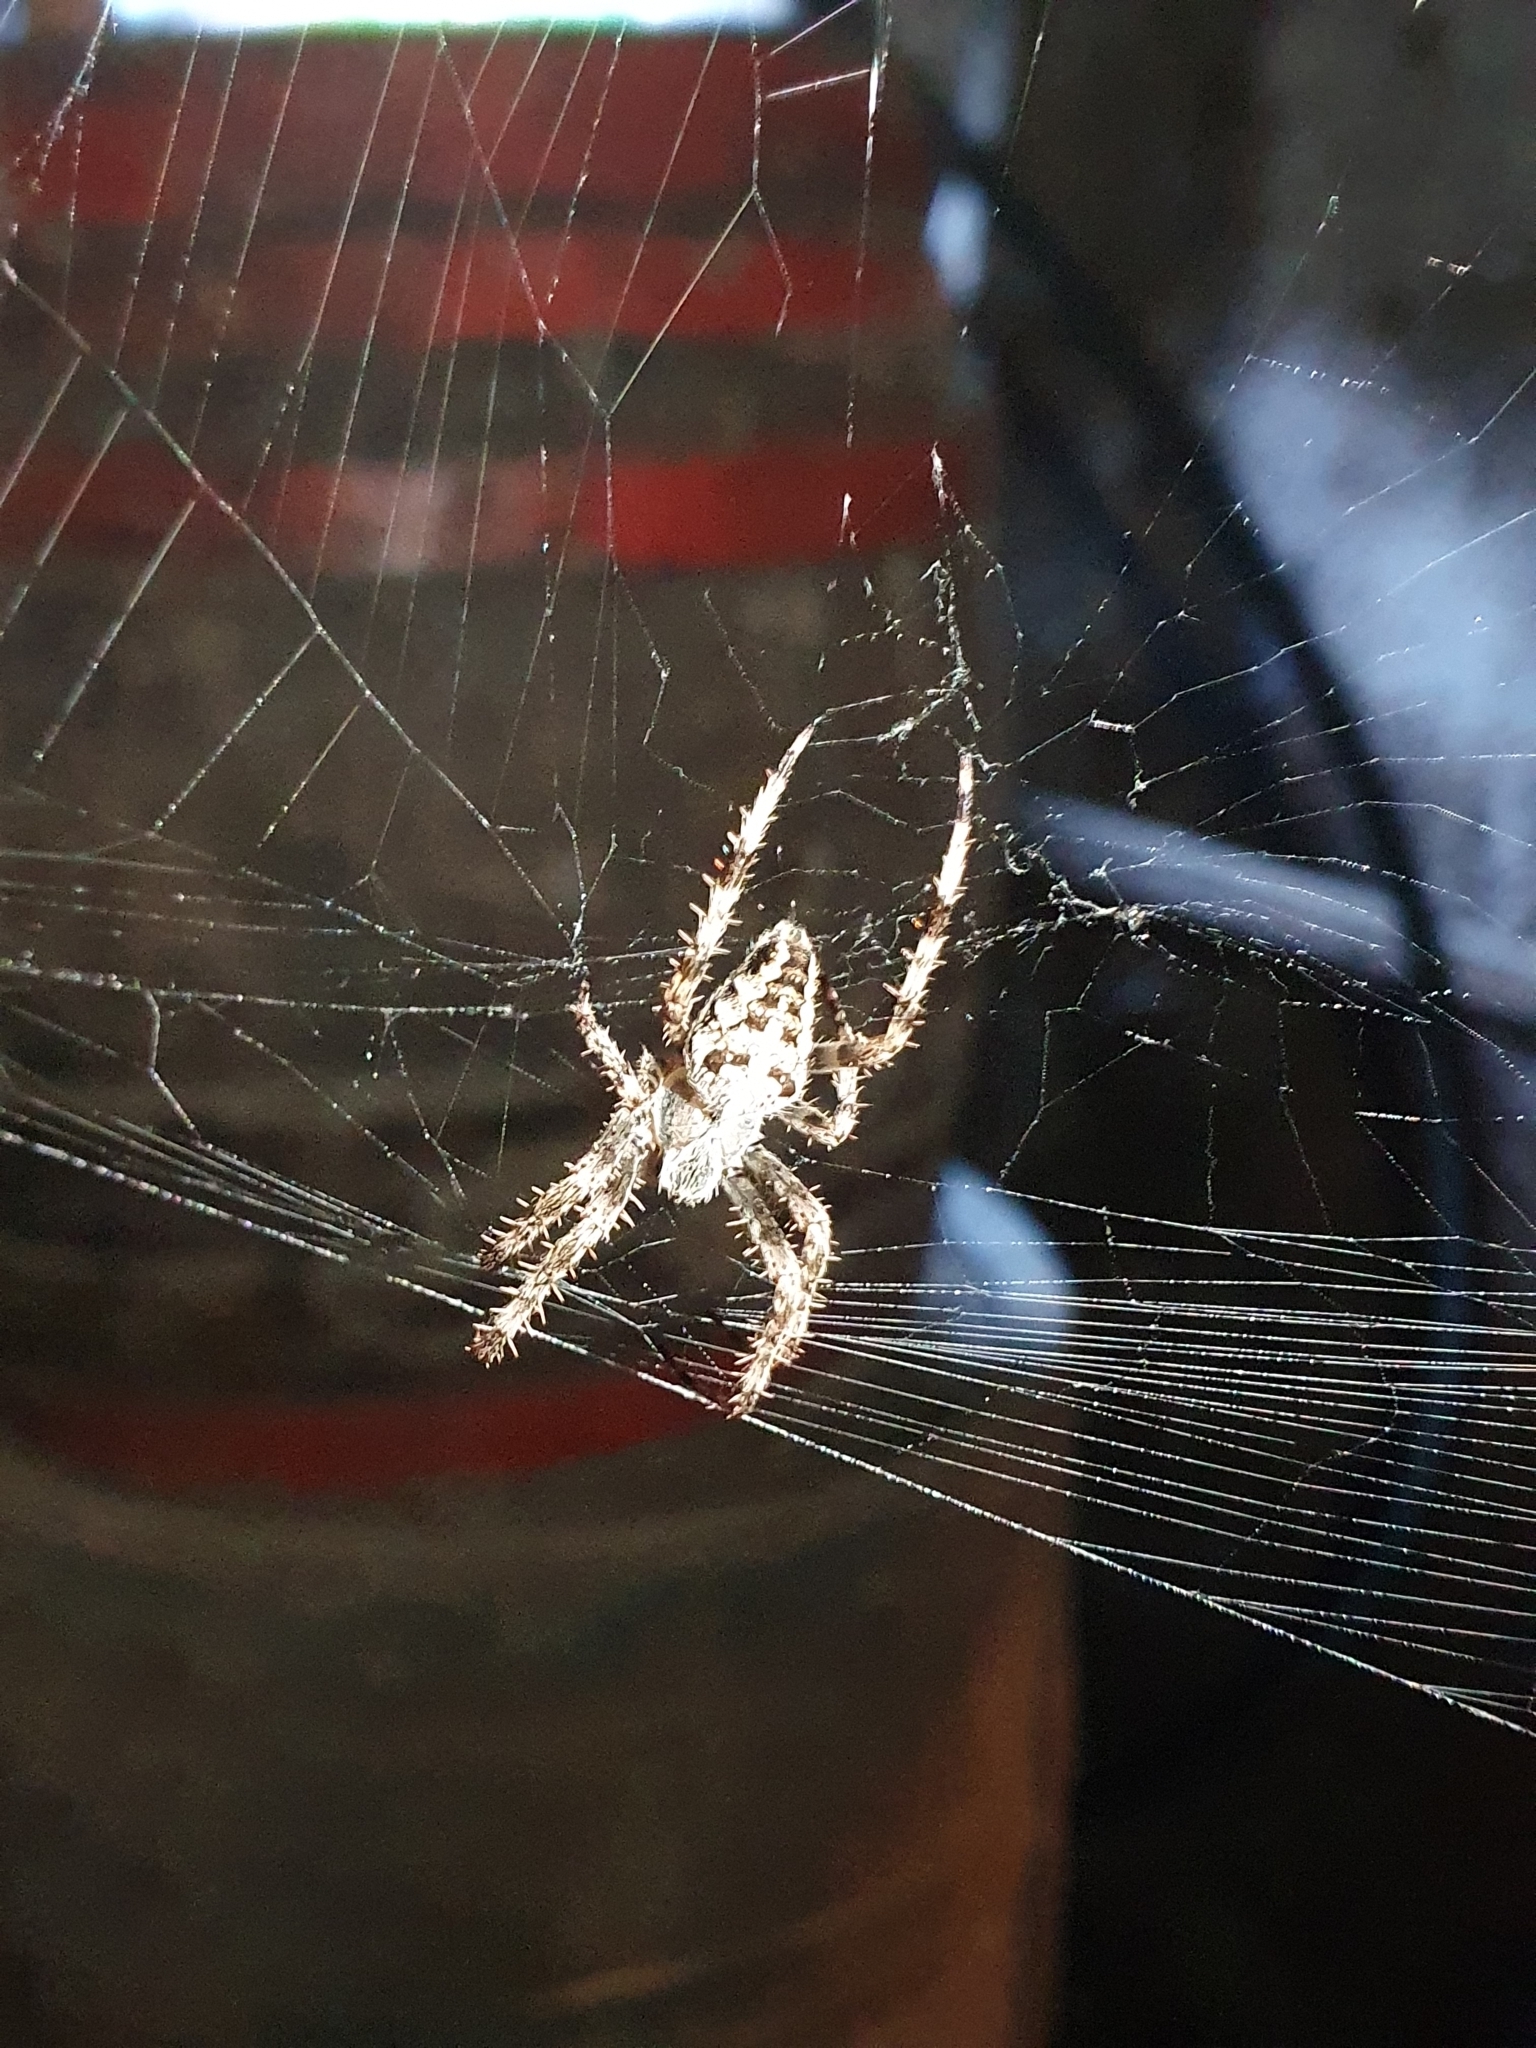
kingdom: Animalia
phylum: Arthropoda
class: Arachnida
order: Araneae
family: Araneidae
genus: Araneus
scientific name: Araneus diadematus
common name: Cross orbweaver
